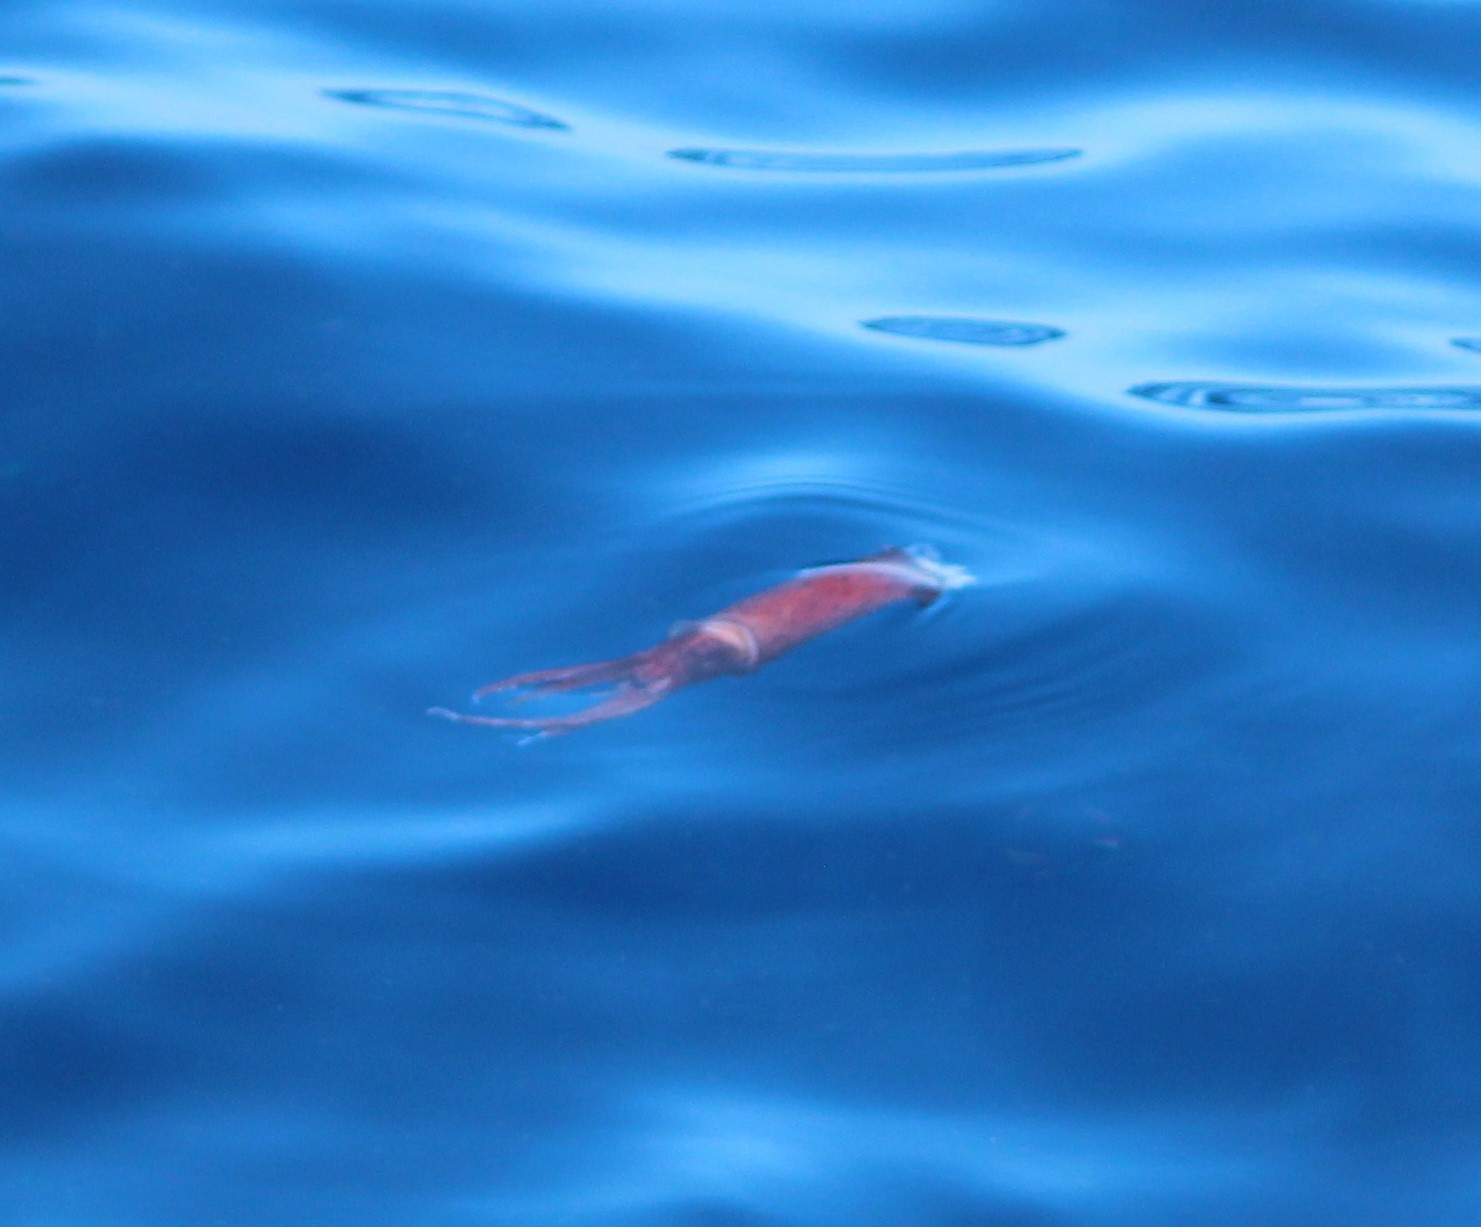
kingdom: Animalia
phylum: Mollusca
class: Cephalopoda
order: Oegopsida
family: Ommastrephidae
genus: Illex
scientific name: Illex illecebrosus
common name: Boreal squid
